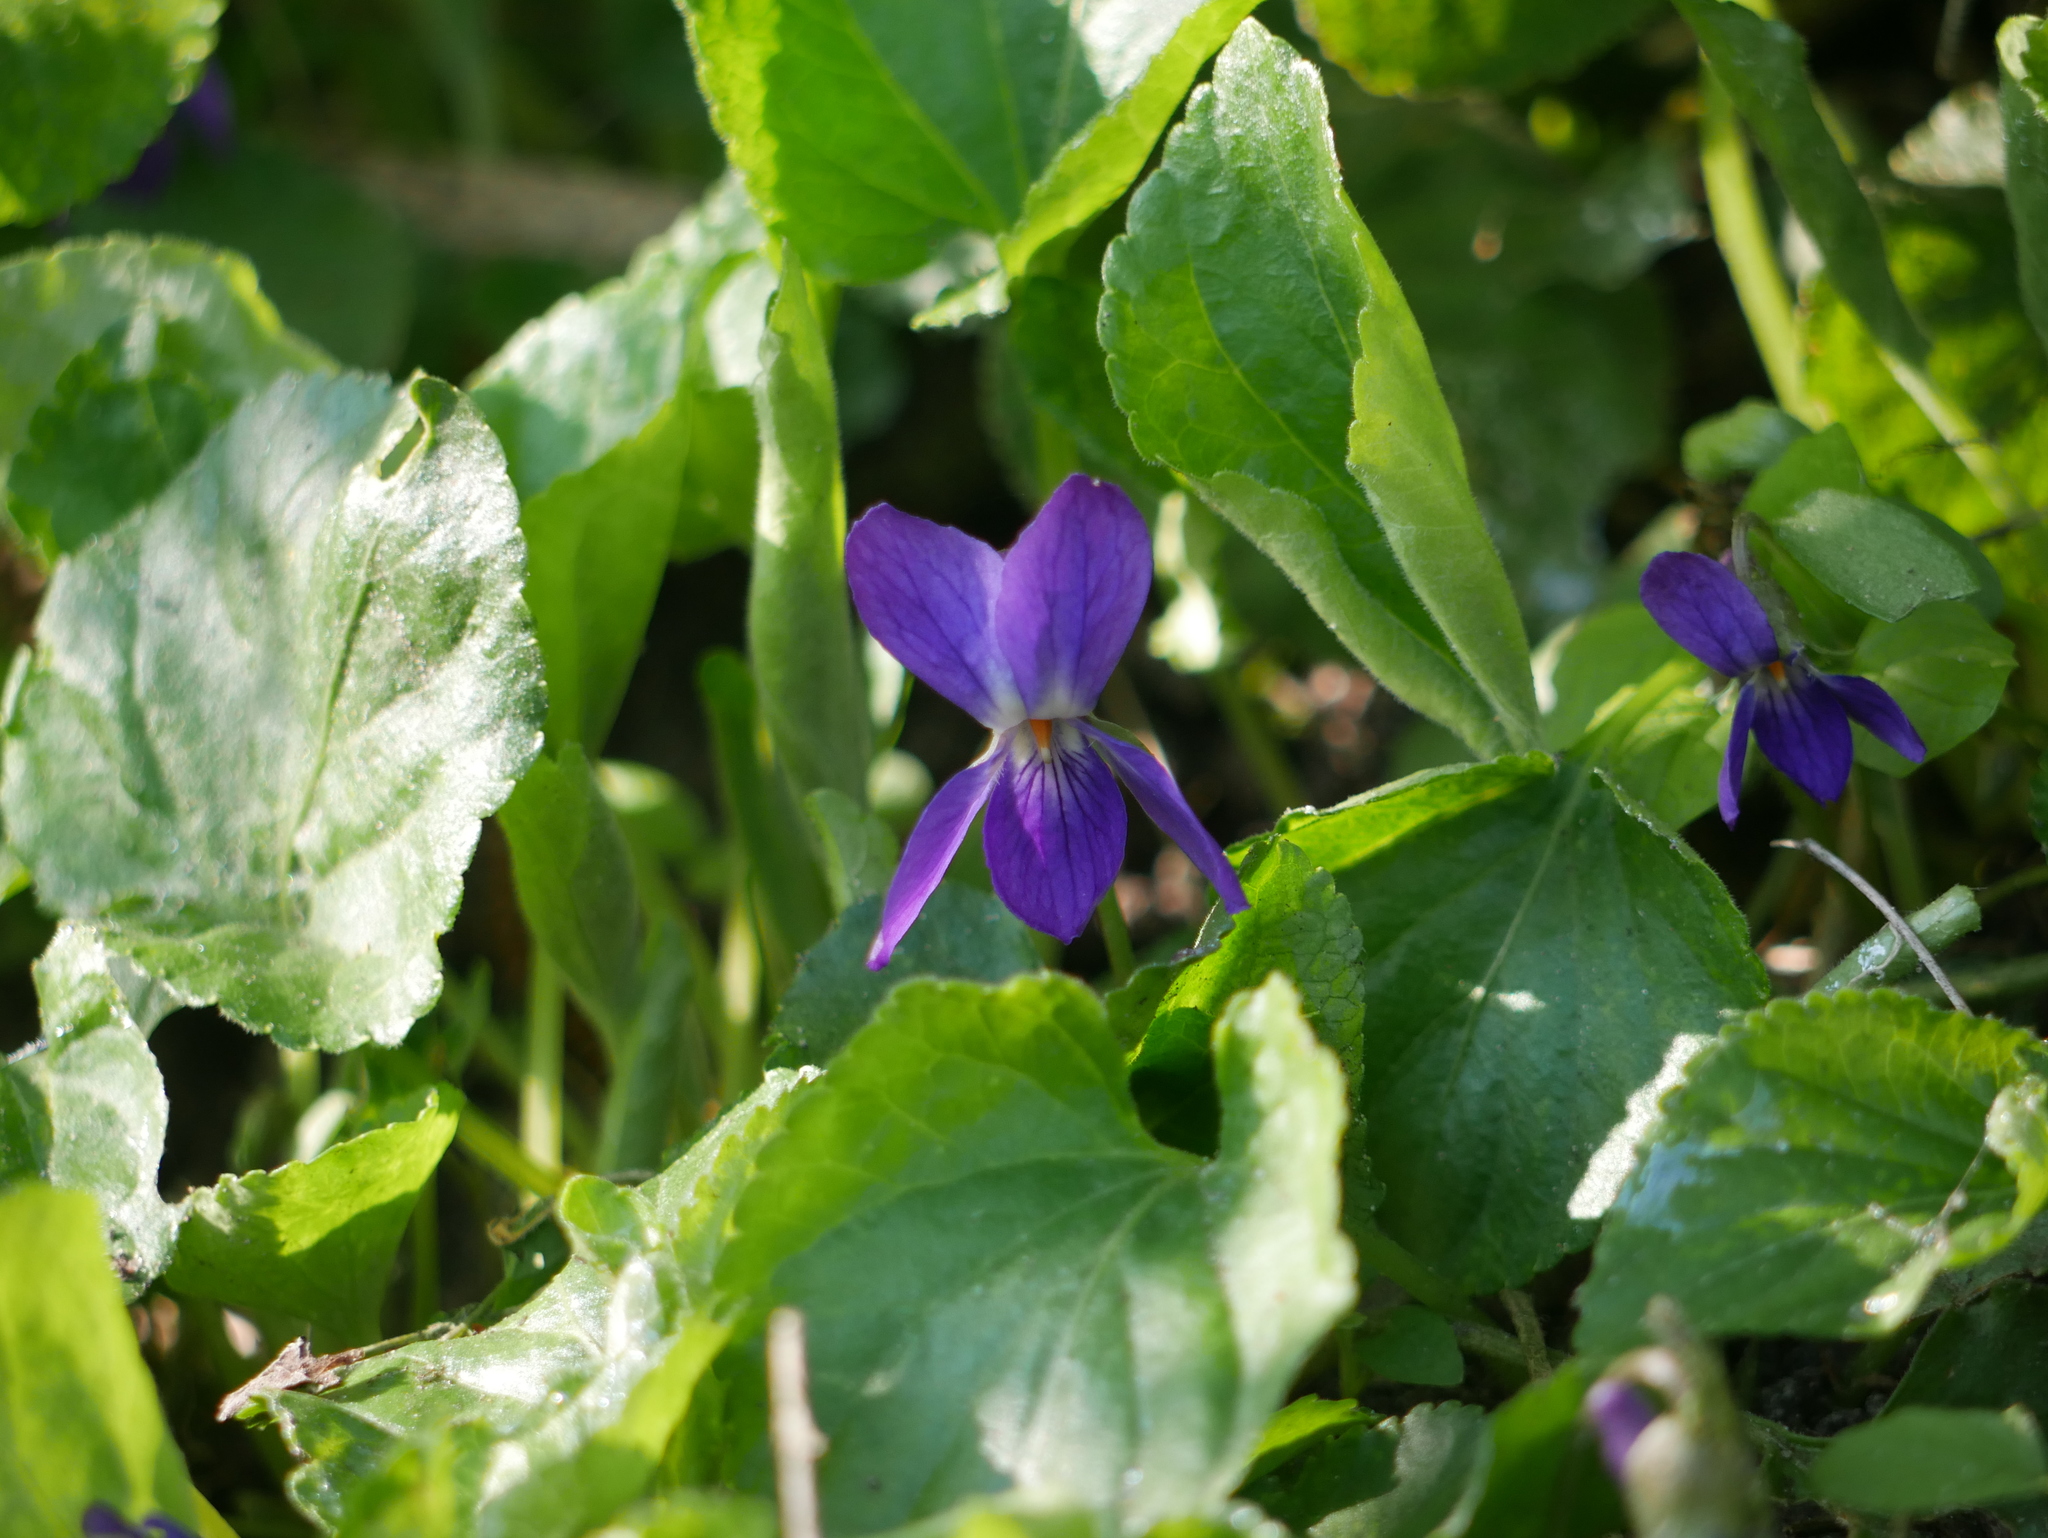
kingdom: Plantae
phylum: Tracheophyta
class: Magnoliopsida
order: Malpighiales
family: Violaceae
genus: Viola
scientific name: Viola odorata
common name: Sweet violet
